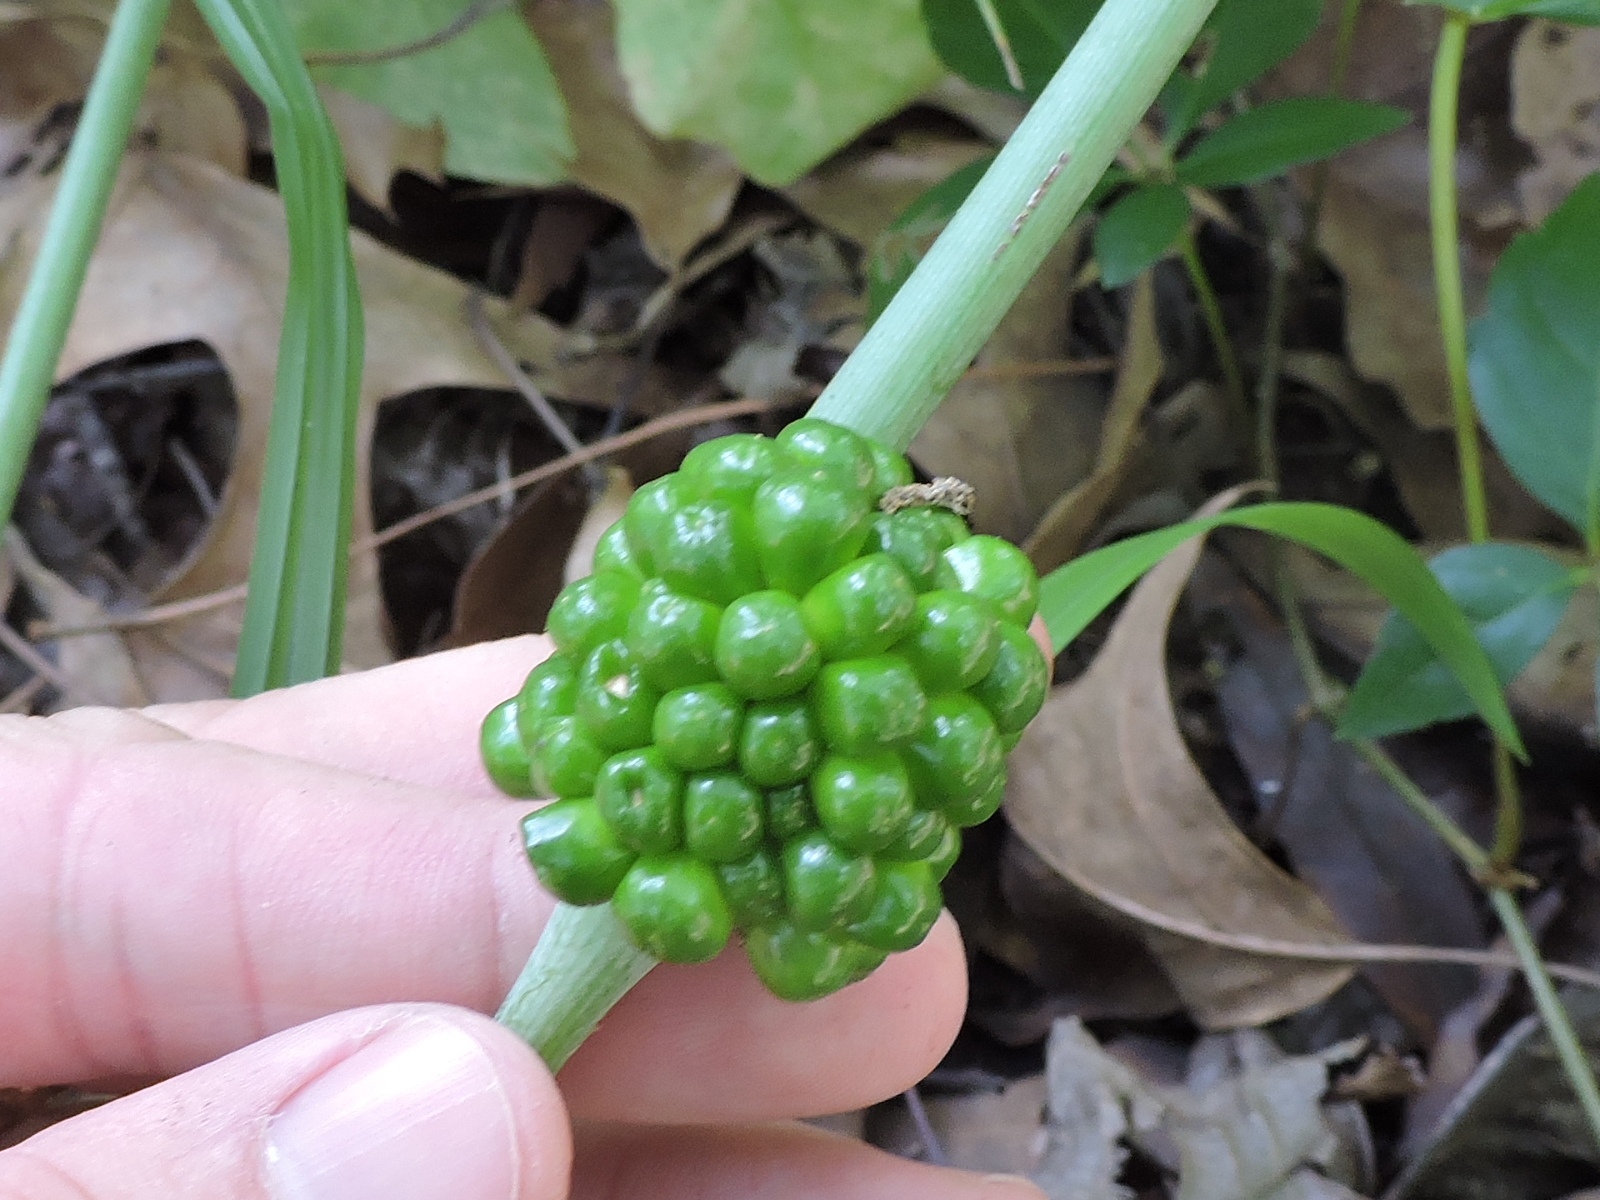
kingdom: Plantae
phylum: Tracheophyta
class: Liliopsida
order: Alismatales
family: Araceae
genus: Arisaema
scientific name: Arisaema dracontium
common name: Dragon-arum
